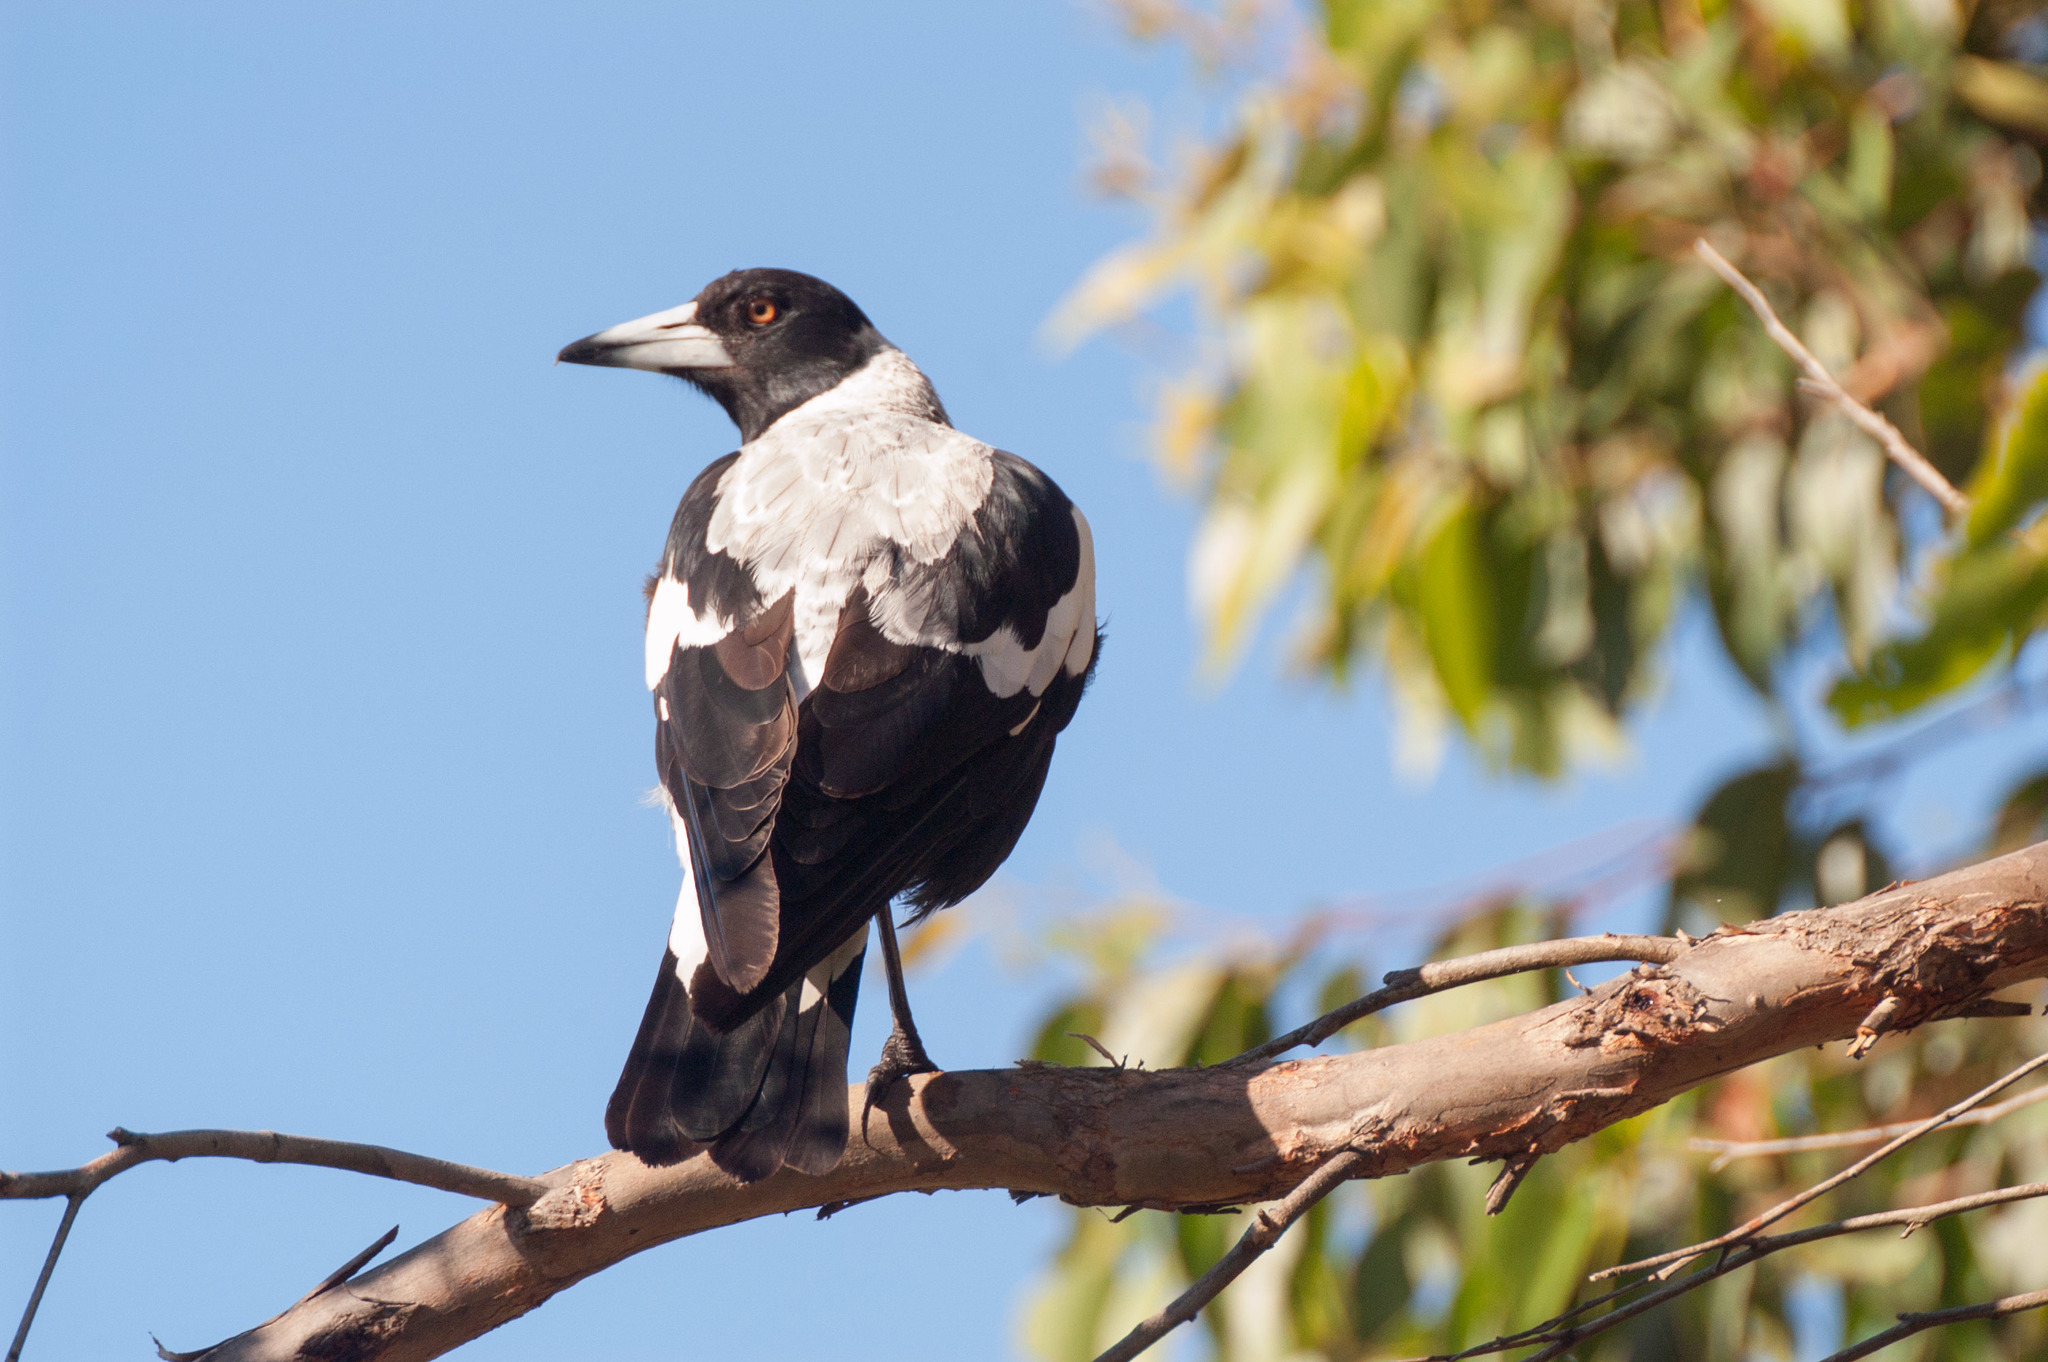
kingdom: Animalia
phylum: Chordata
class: Aves
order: Passeriformes
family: Cracticidae
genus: Gymnorhina
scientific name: Gymnorhina tibicen
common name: Australian magpie
